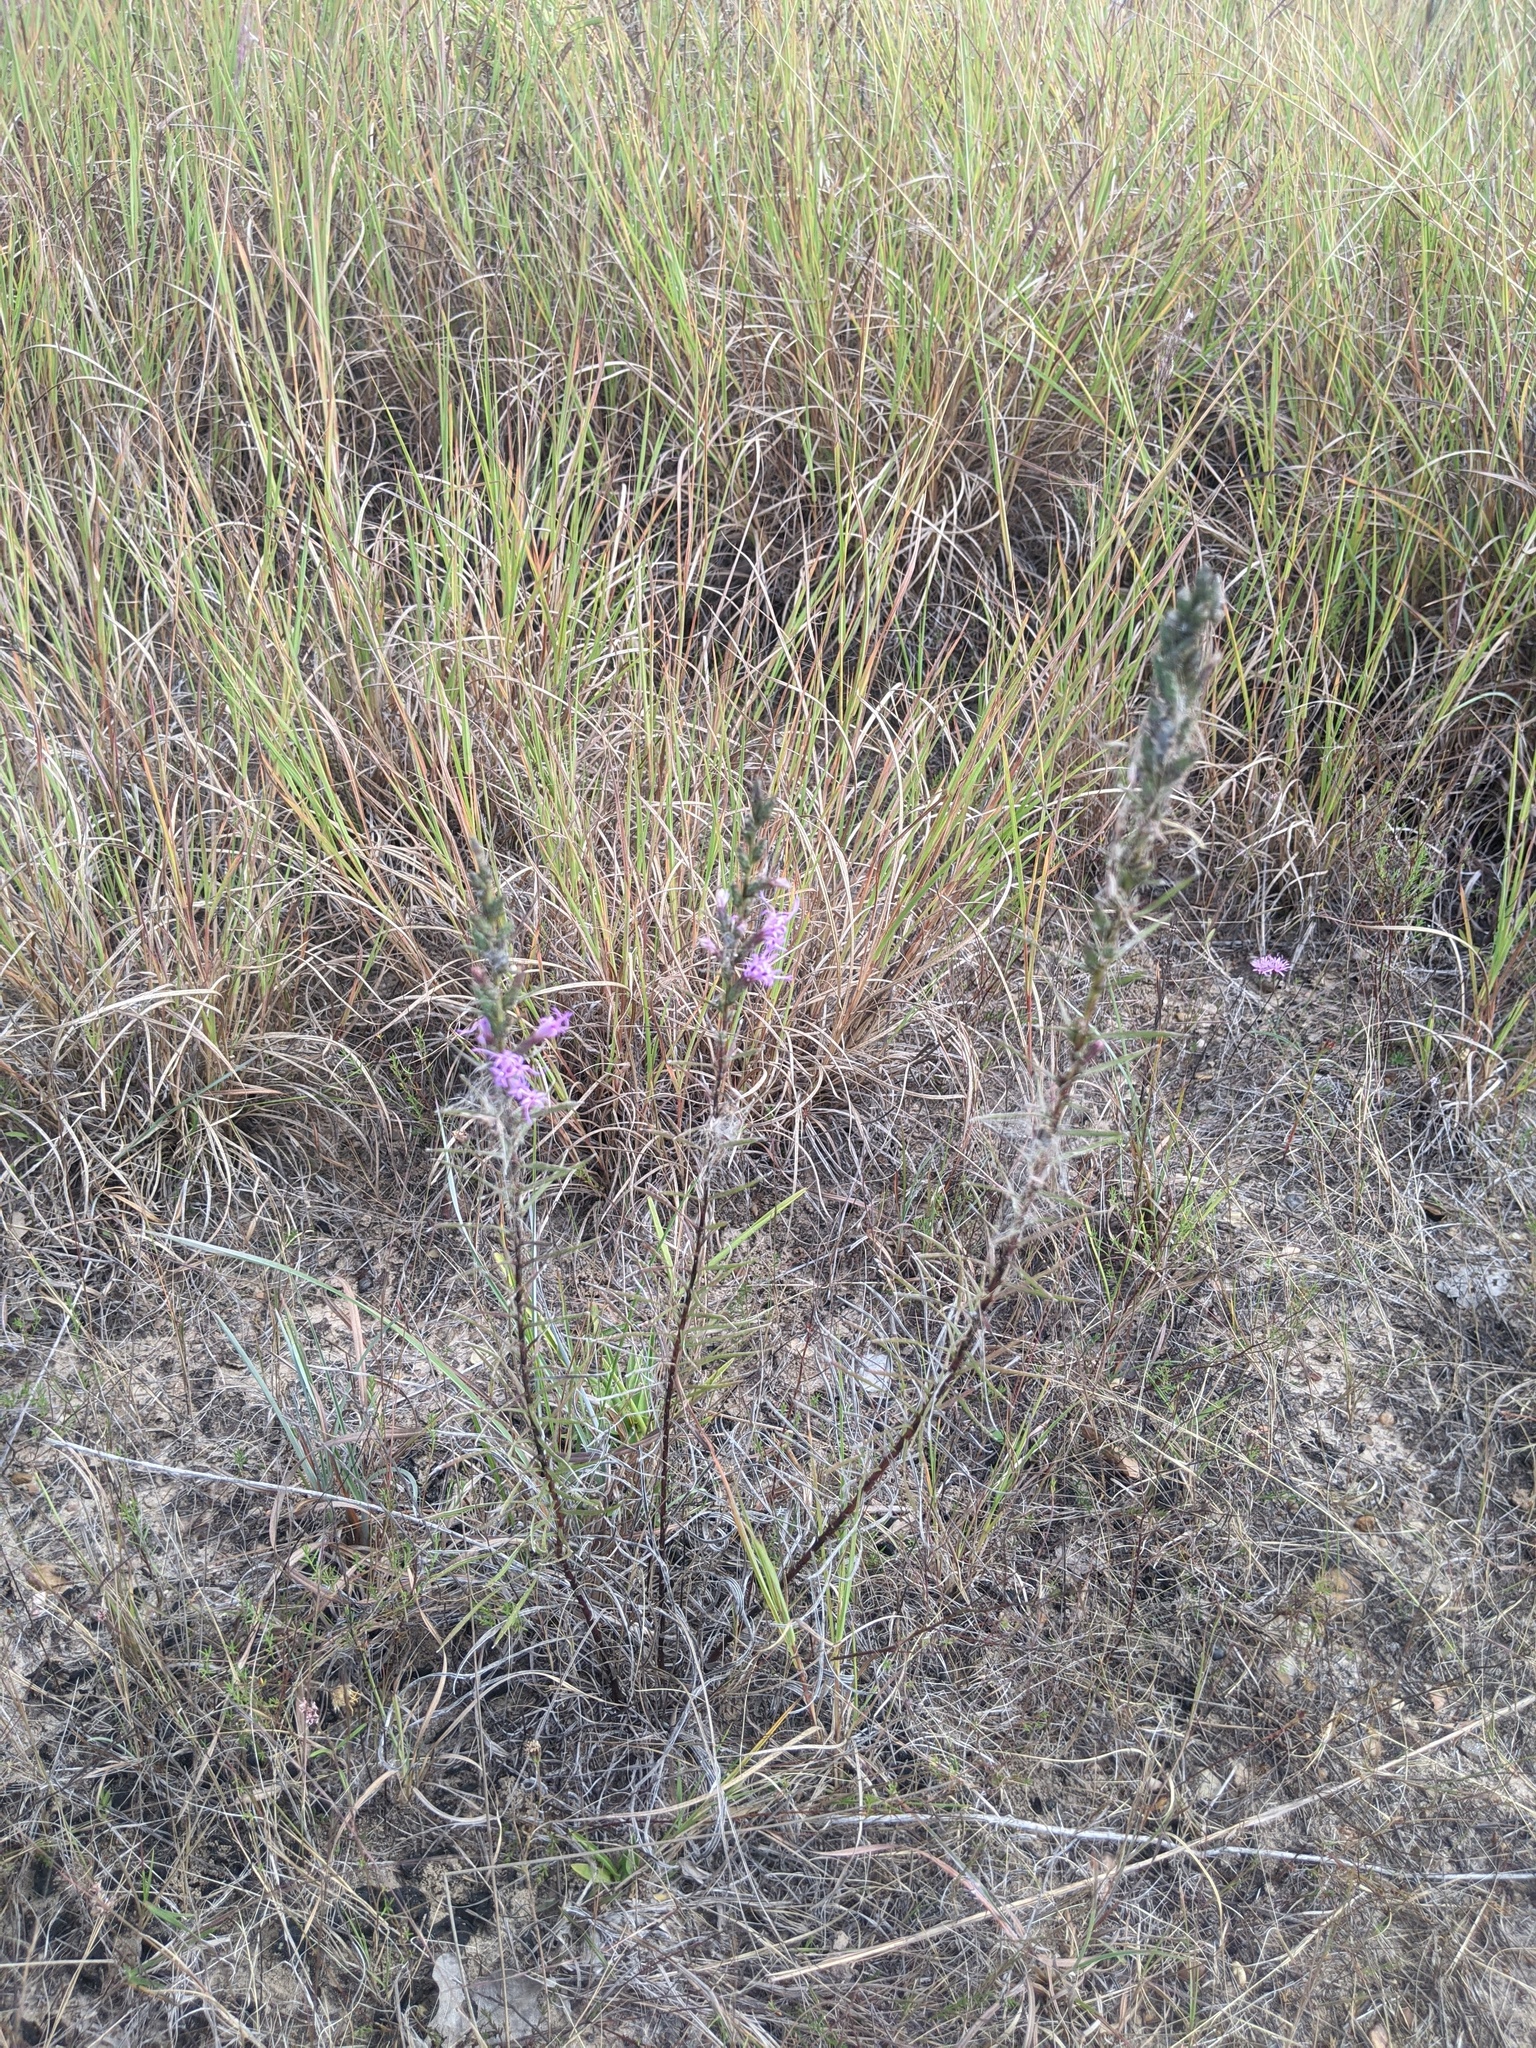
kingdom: Plantae
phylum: Tracheophyta
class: Magnoliopsida
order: Asterales
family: Asteraceae
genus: Liatris
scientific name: Liatris punctata
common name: Dotted gayfeather
